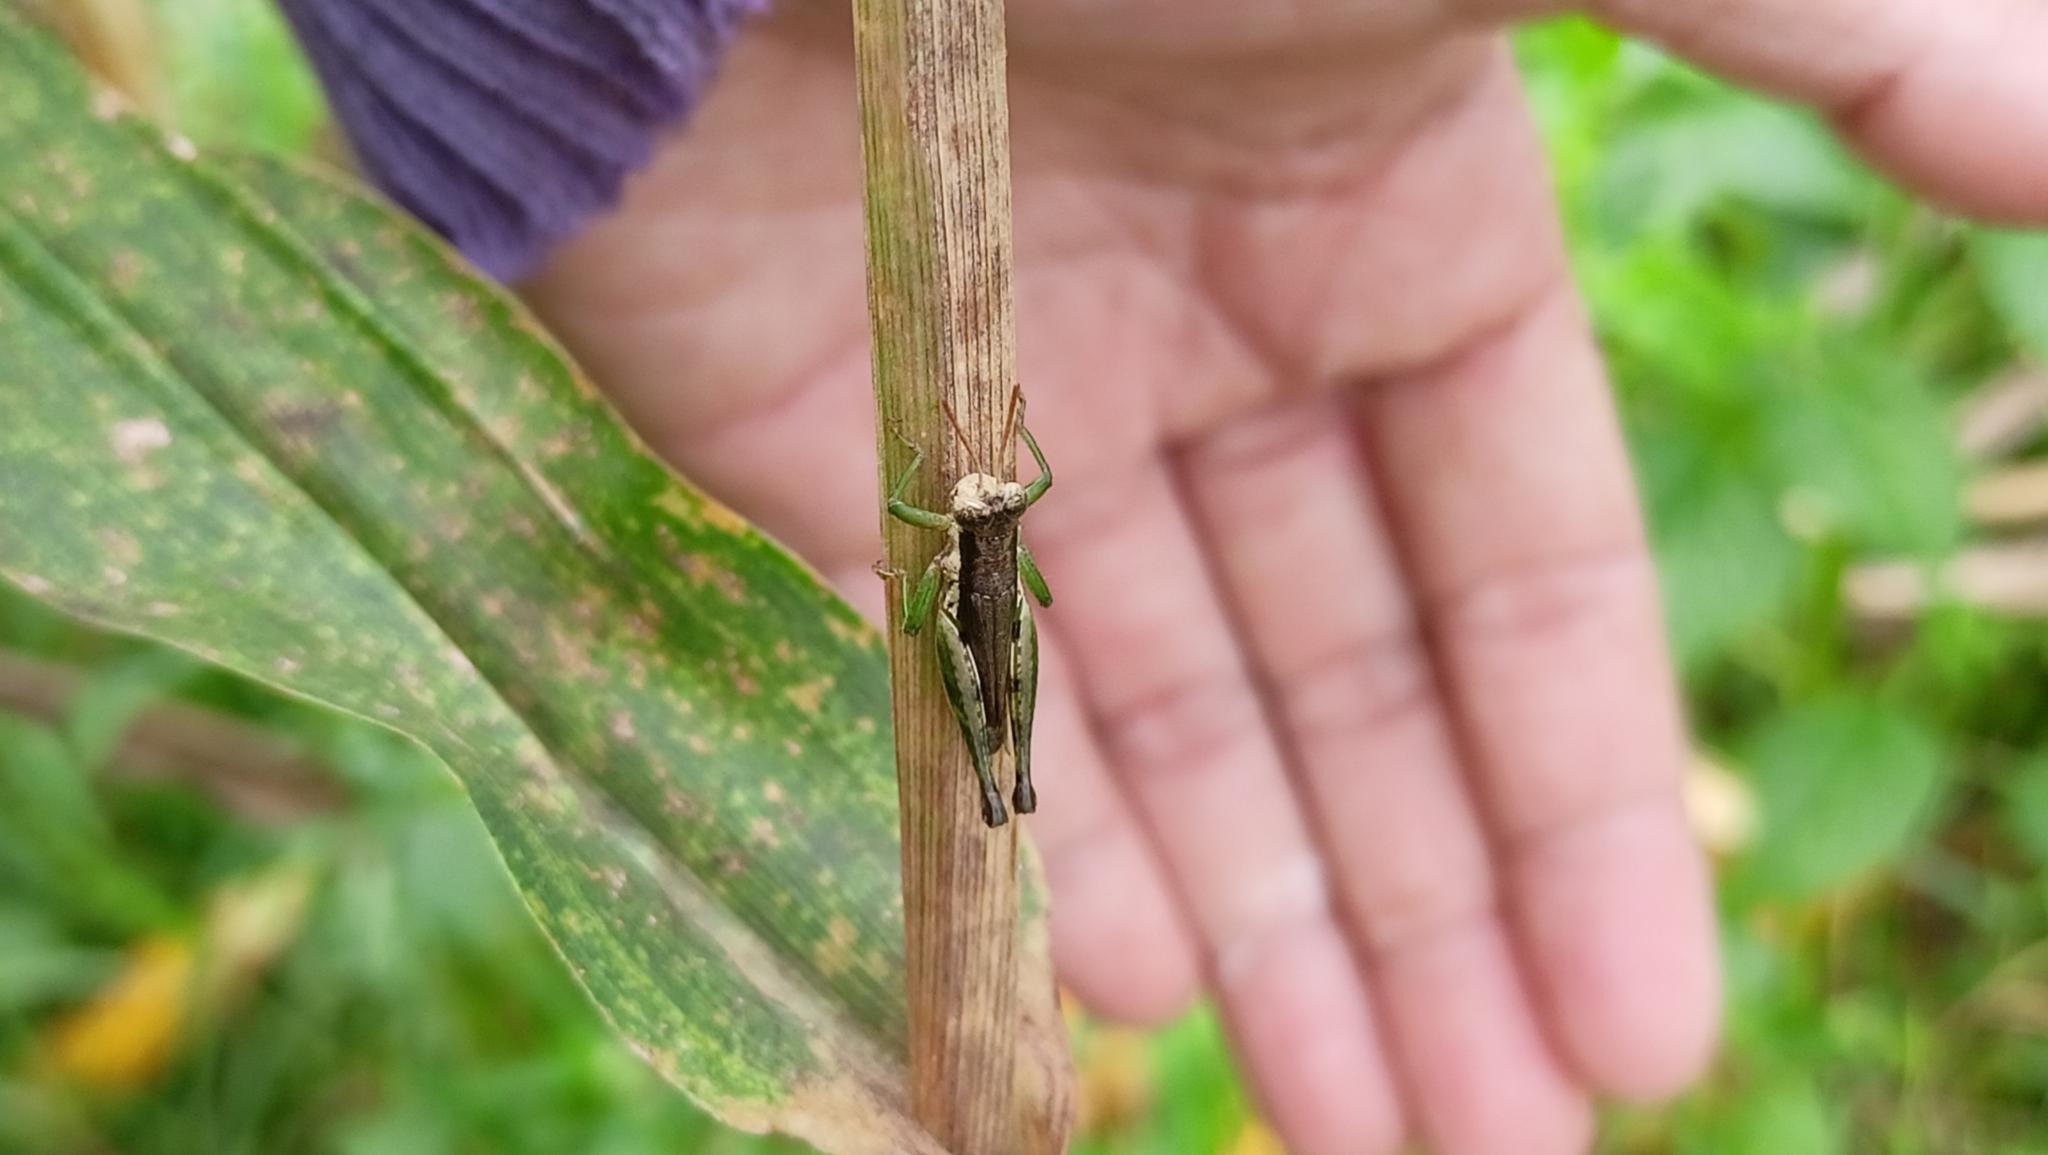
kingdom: Animalia
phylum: Arthropoda
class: Insecta
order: Orthoptera
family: Acrididae
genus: Pseudoxya
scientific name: Pseudoxya diminuta
